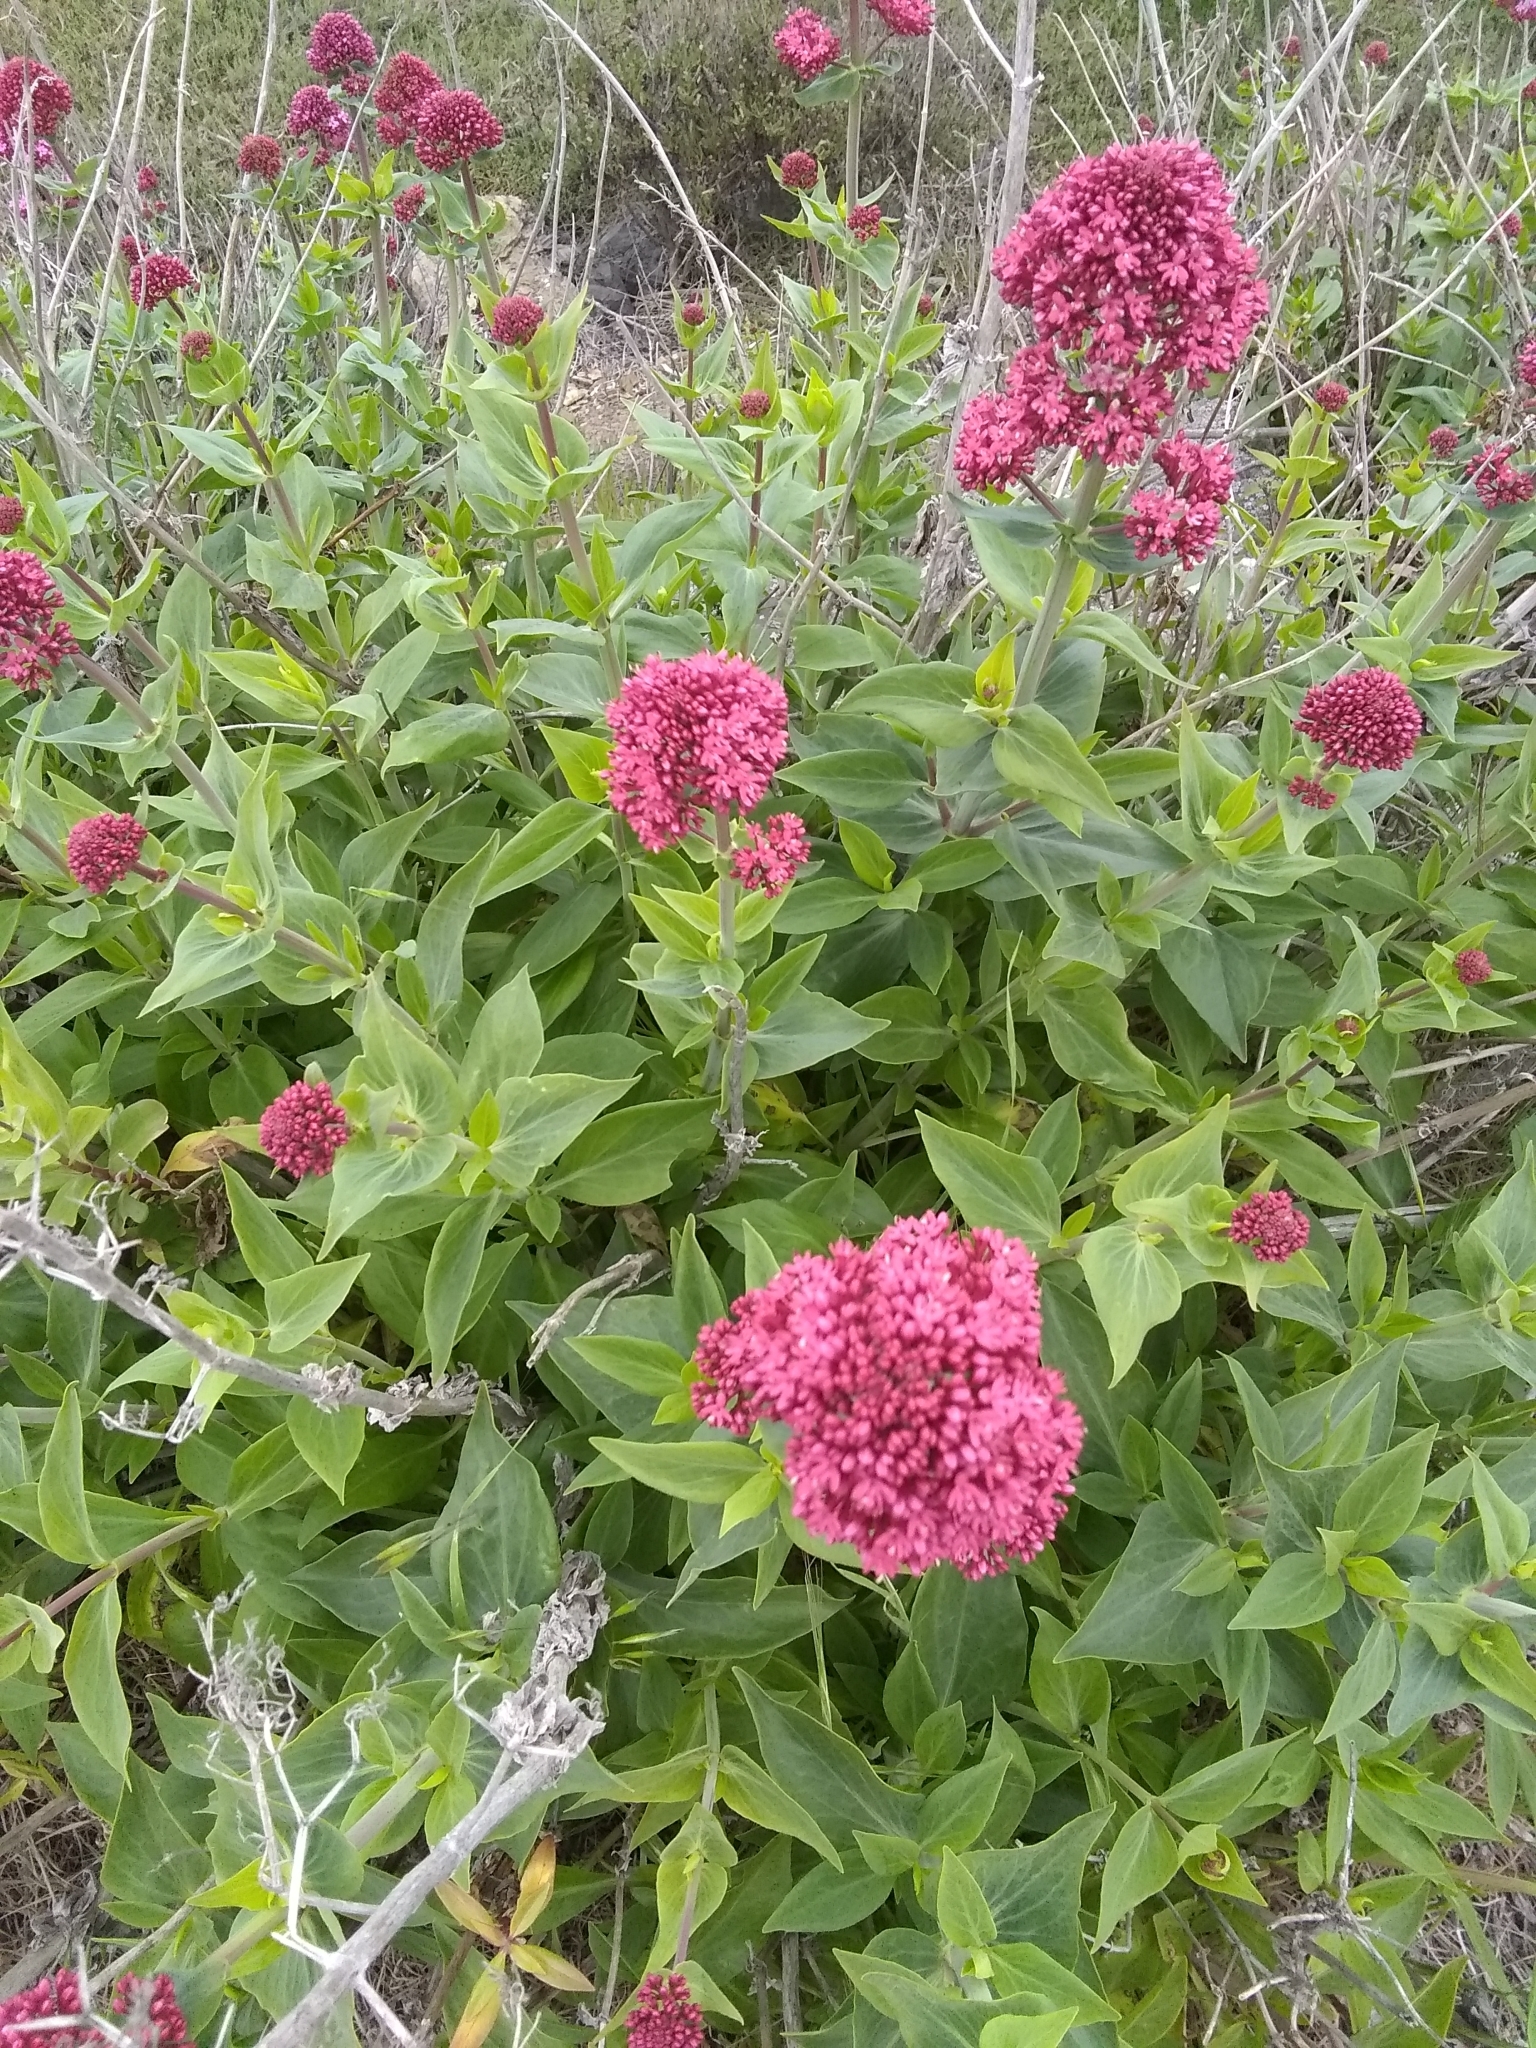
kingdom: Plantae
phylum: Tracheophyta
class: Magnoliopsida
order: Dipsacales
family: Caprifoliaceae
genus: Centranthus
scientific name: Centranthus ruber
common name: Red valerian
